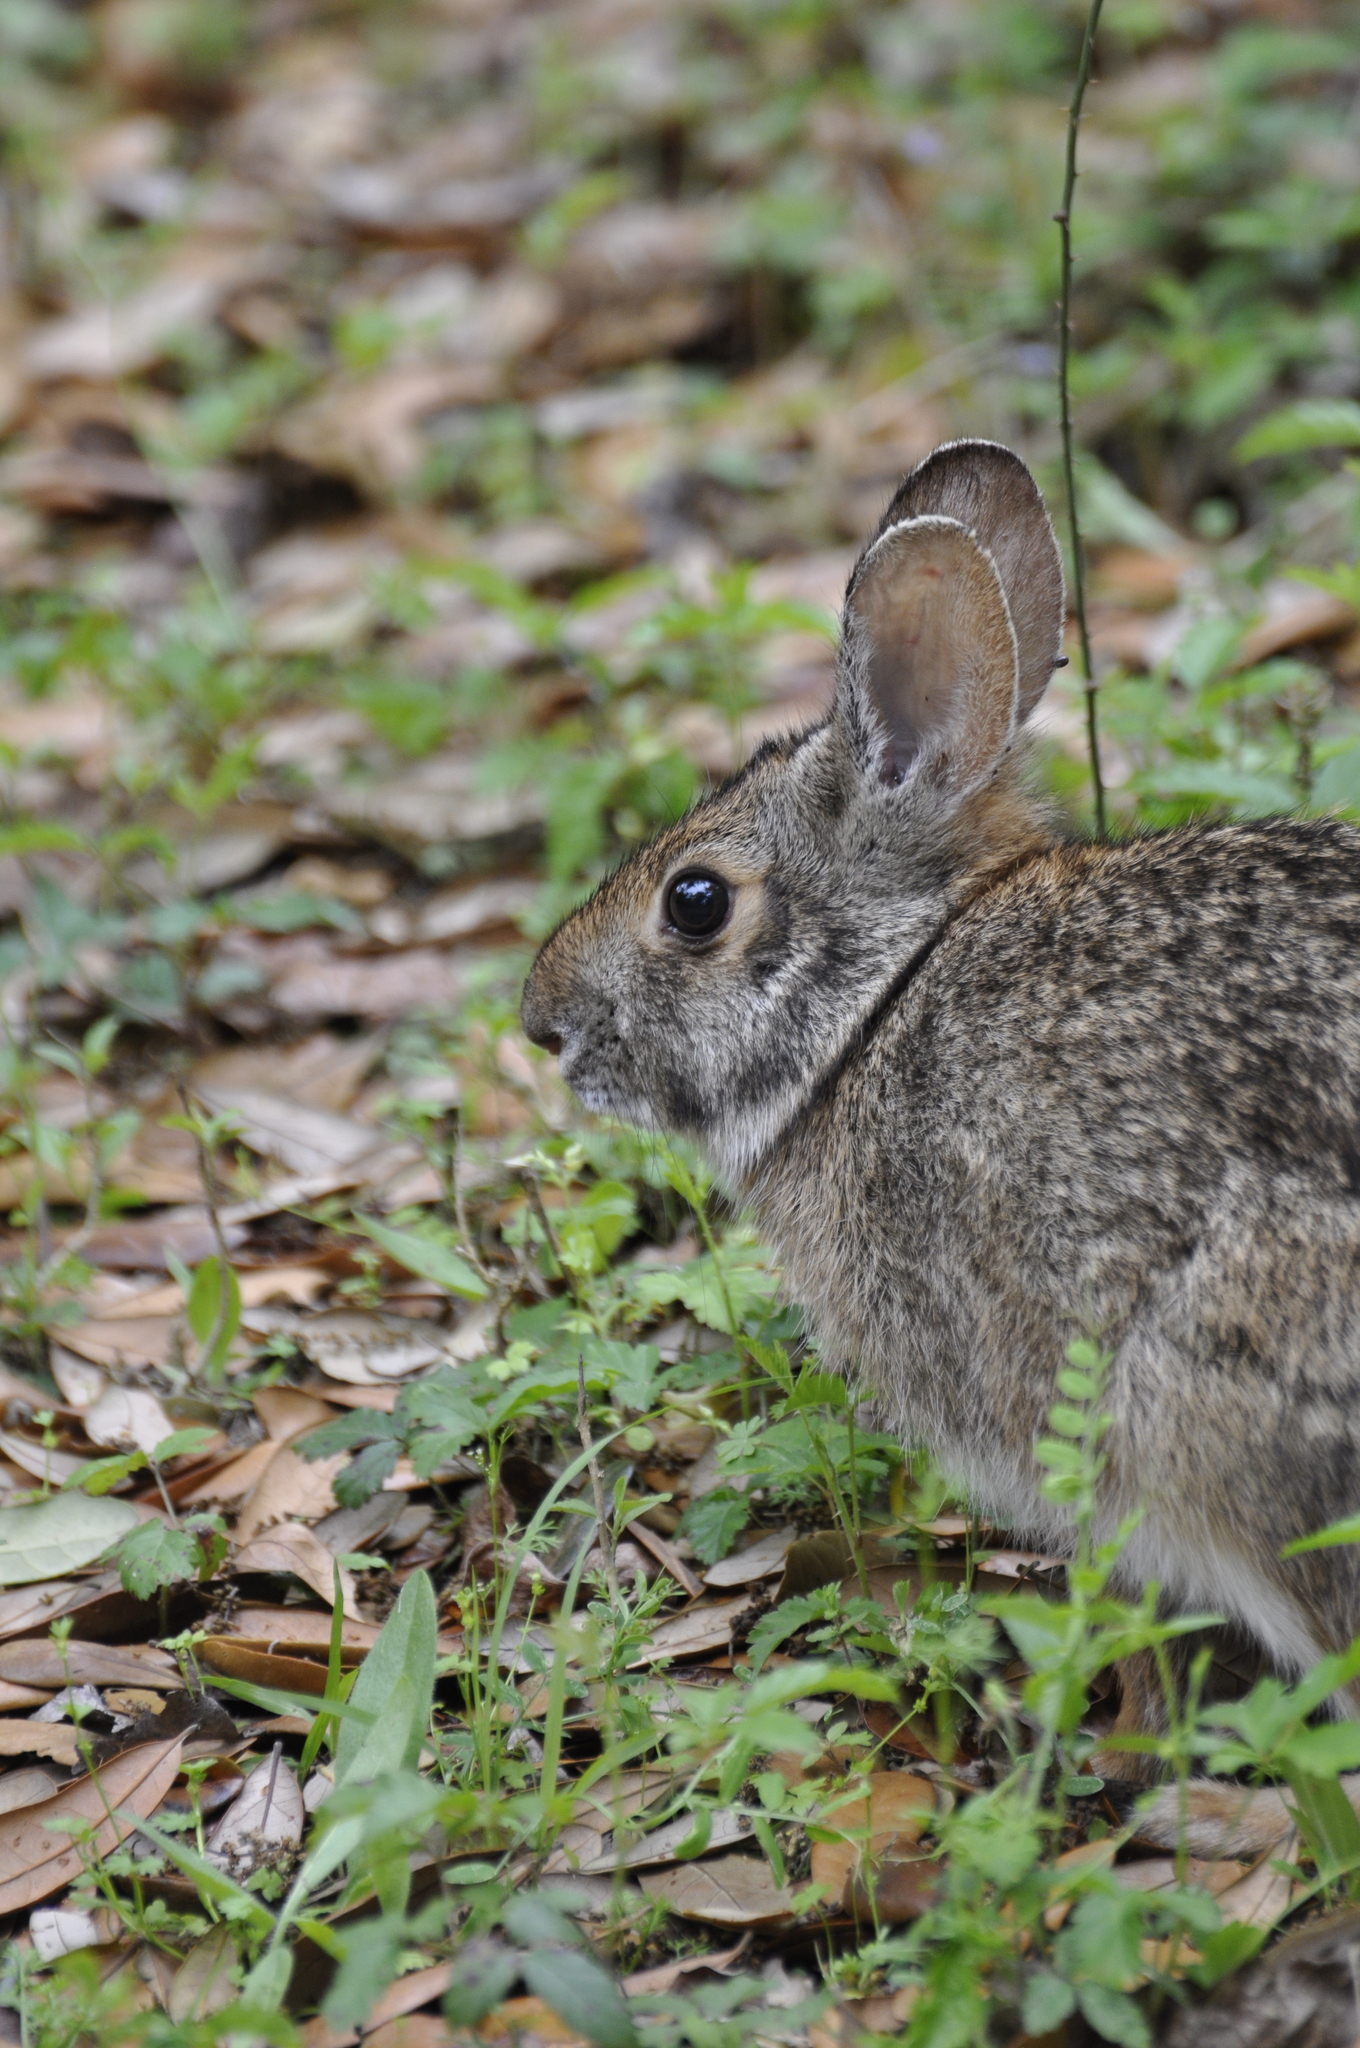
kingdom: Animalia
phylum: Chordata
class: Mammalia
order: Lagomorpha
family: Leporidae
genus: Sylvilagus
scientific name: Sylvilagus aquaticus
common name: Swamp rabbit
